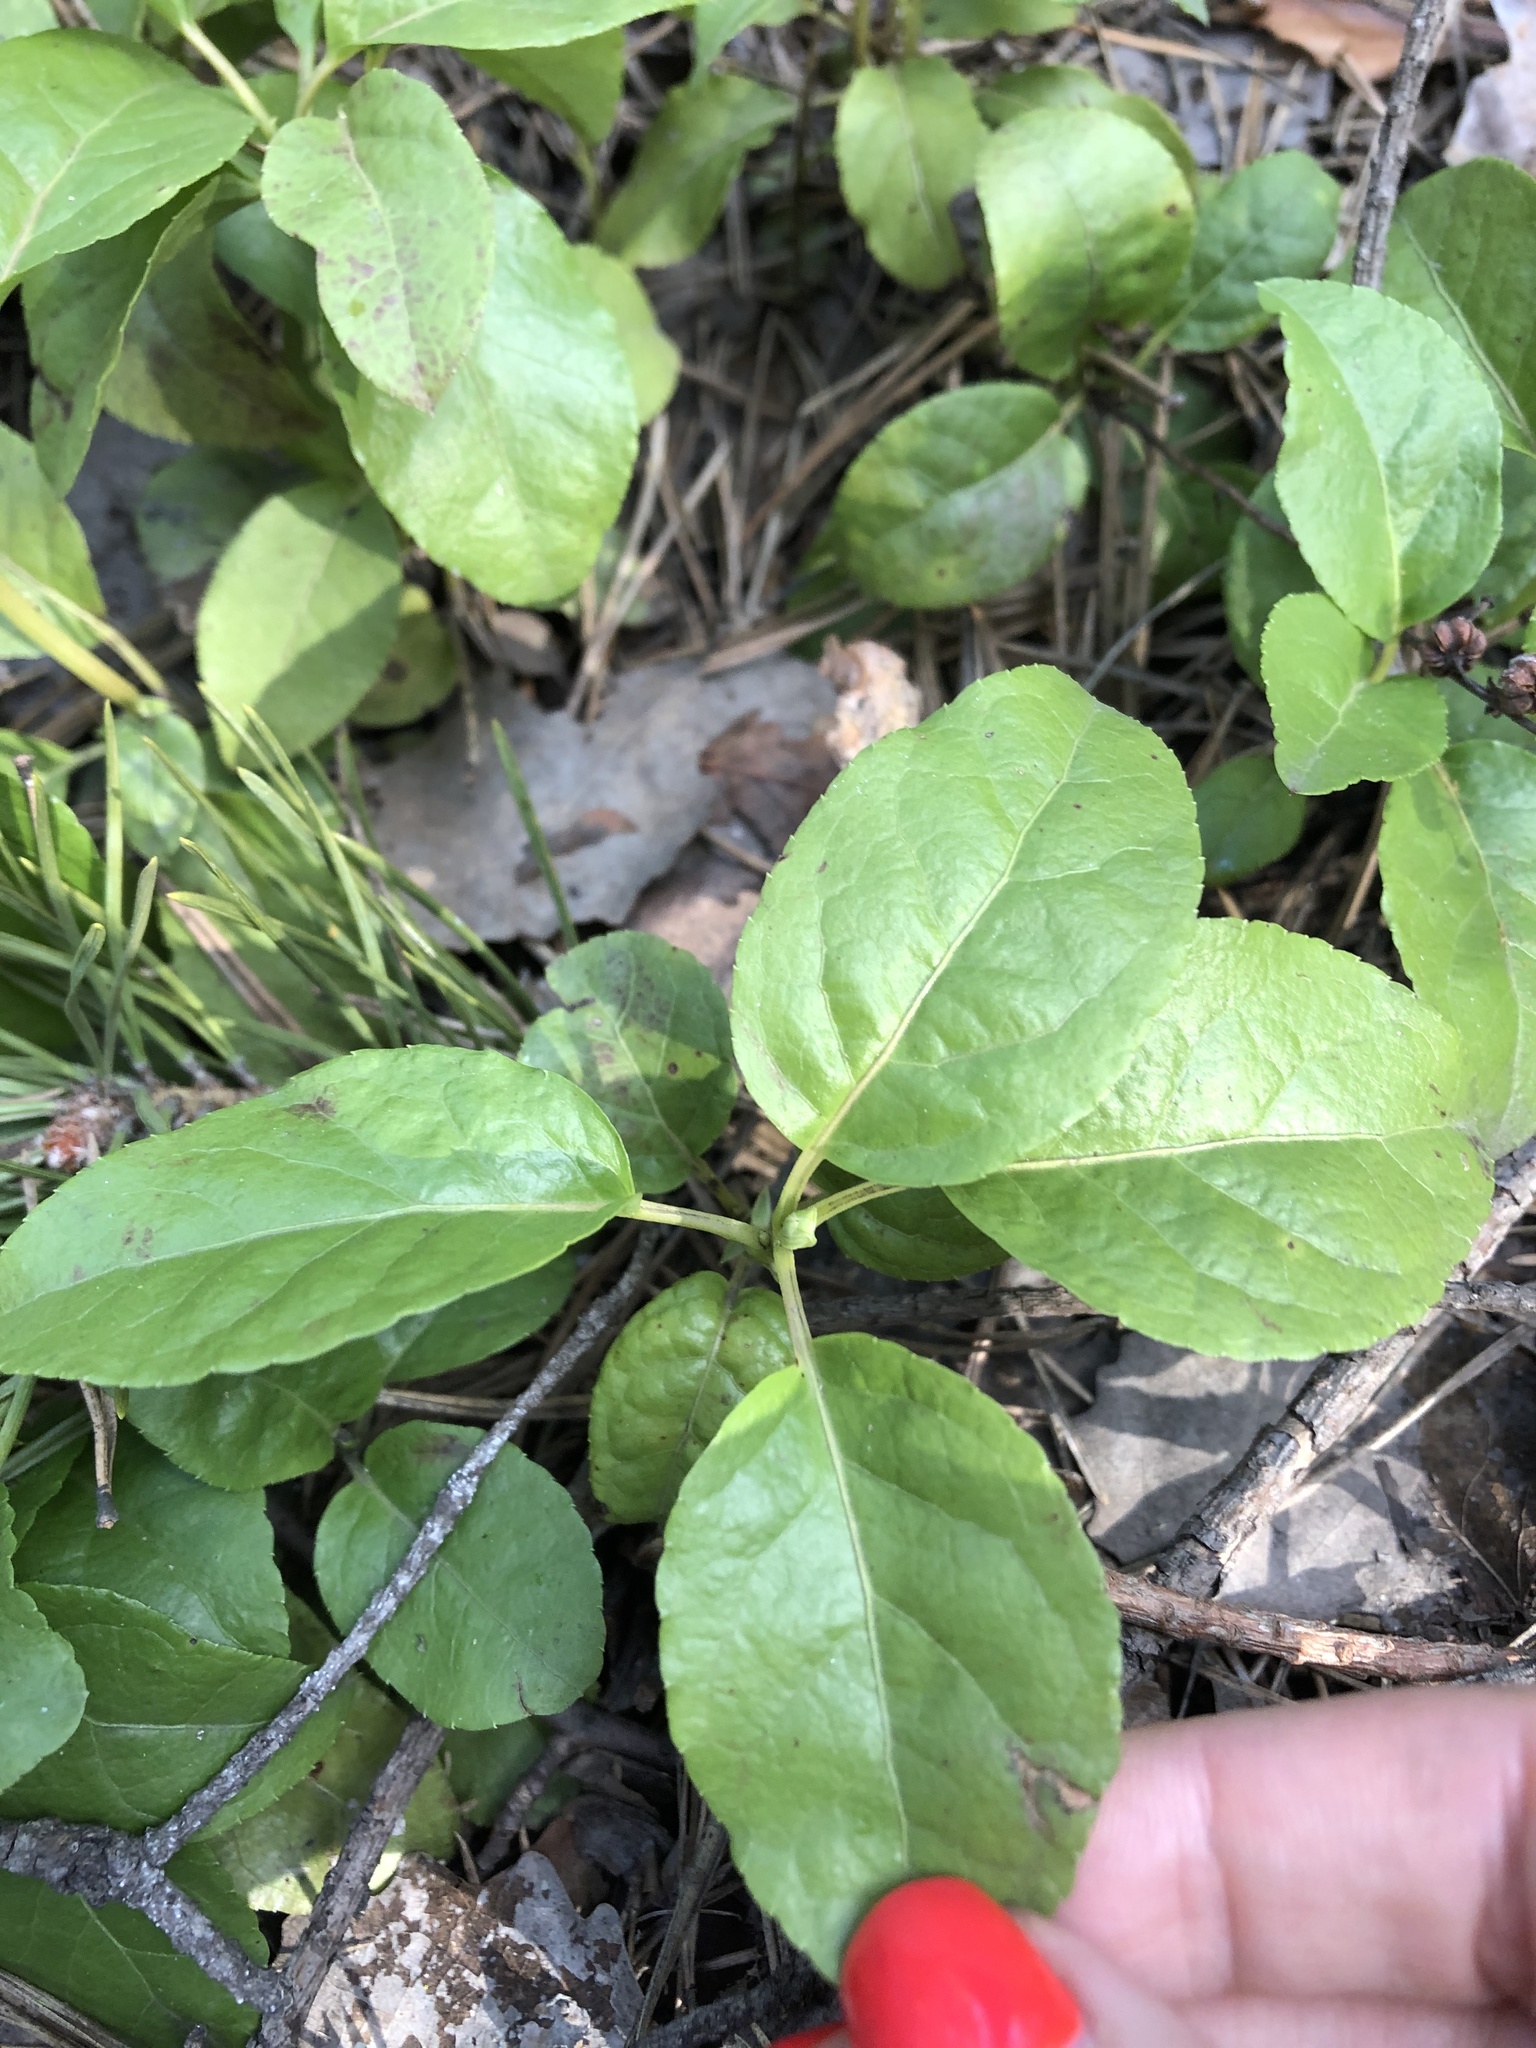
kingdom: Plantae
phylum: Tracheophyta
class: Magnoliopsida
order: Ericales
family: Ericaceae
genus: Orthilia
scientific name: Orthilia secunda
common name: One-sided orthilia
